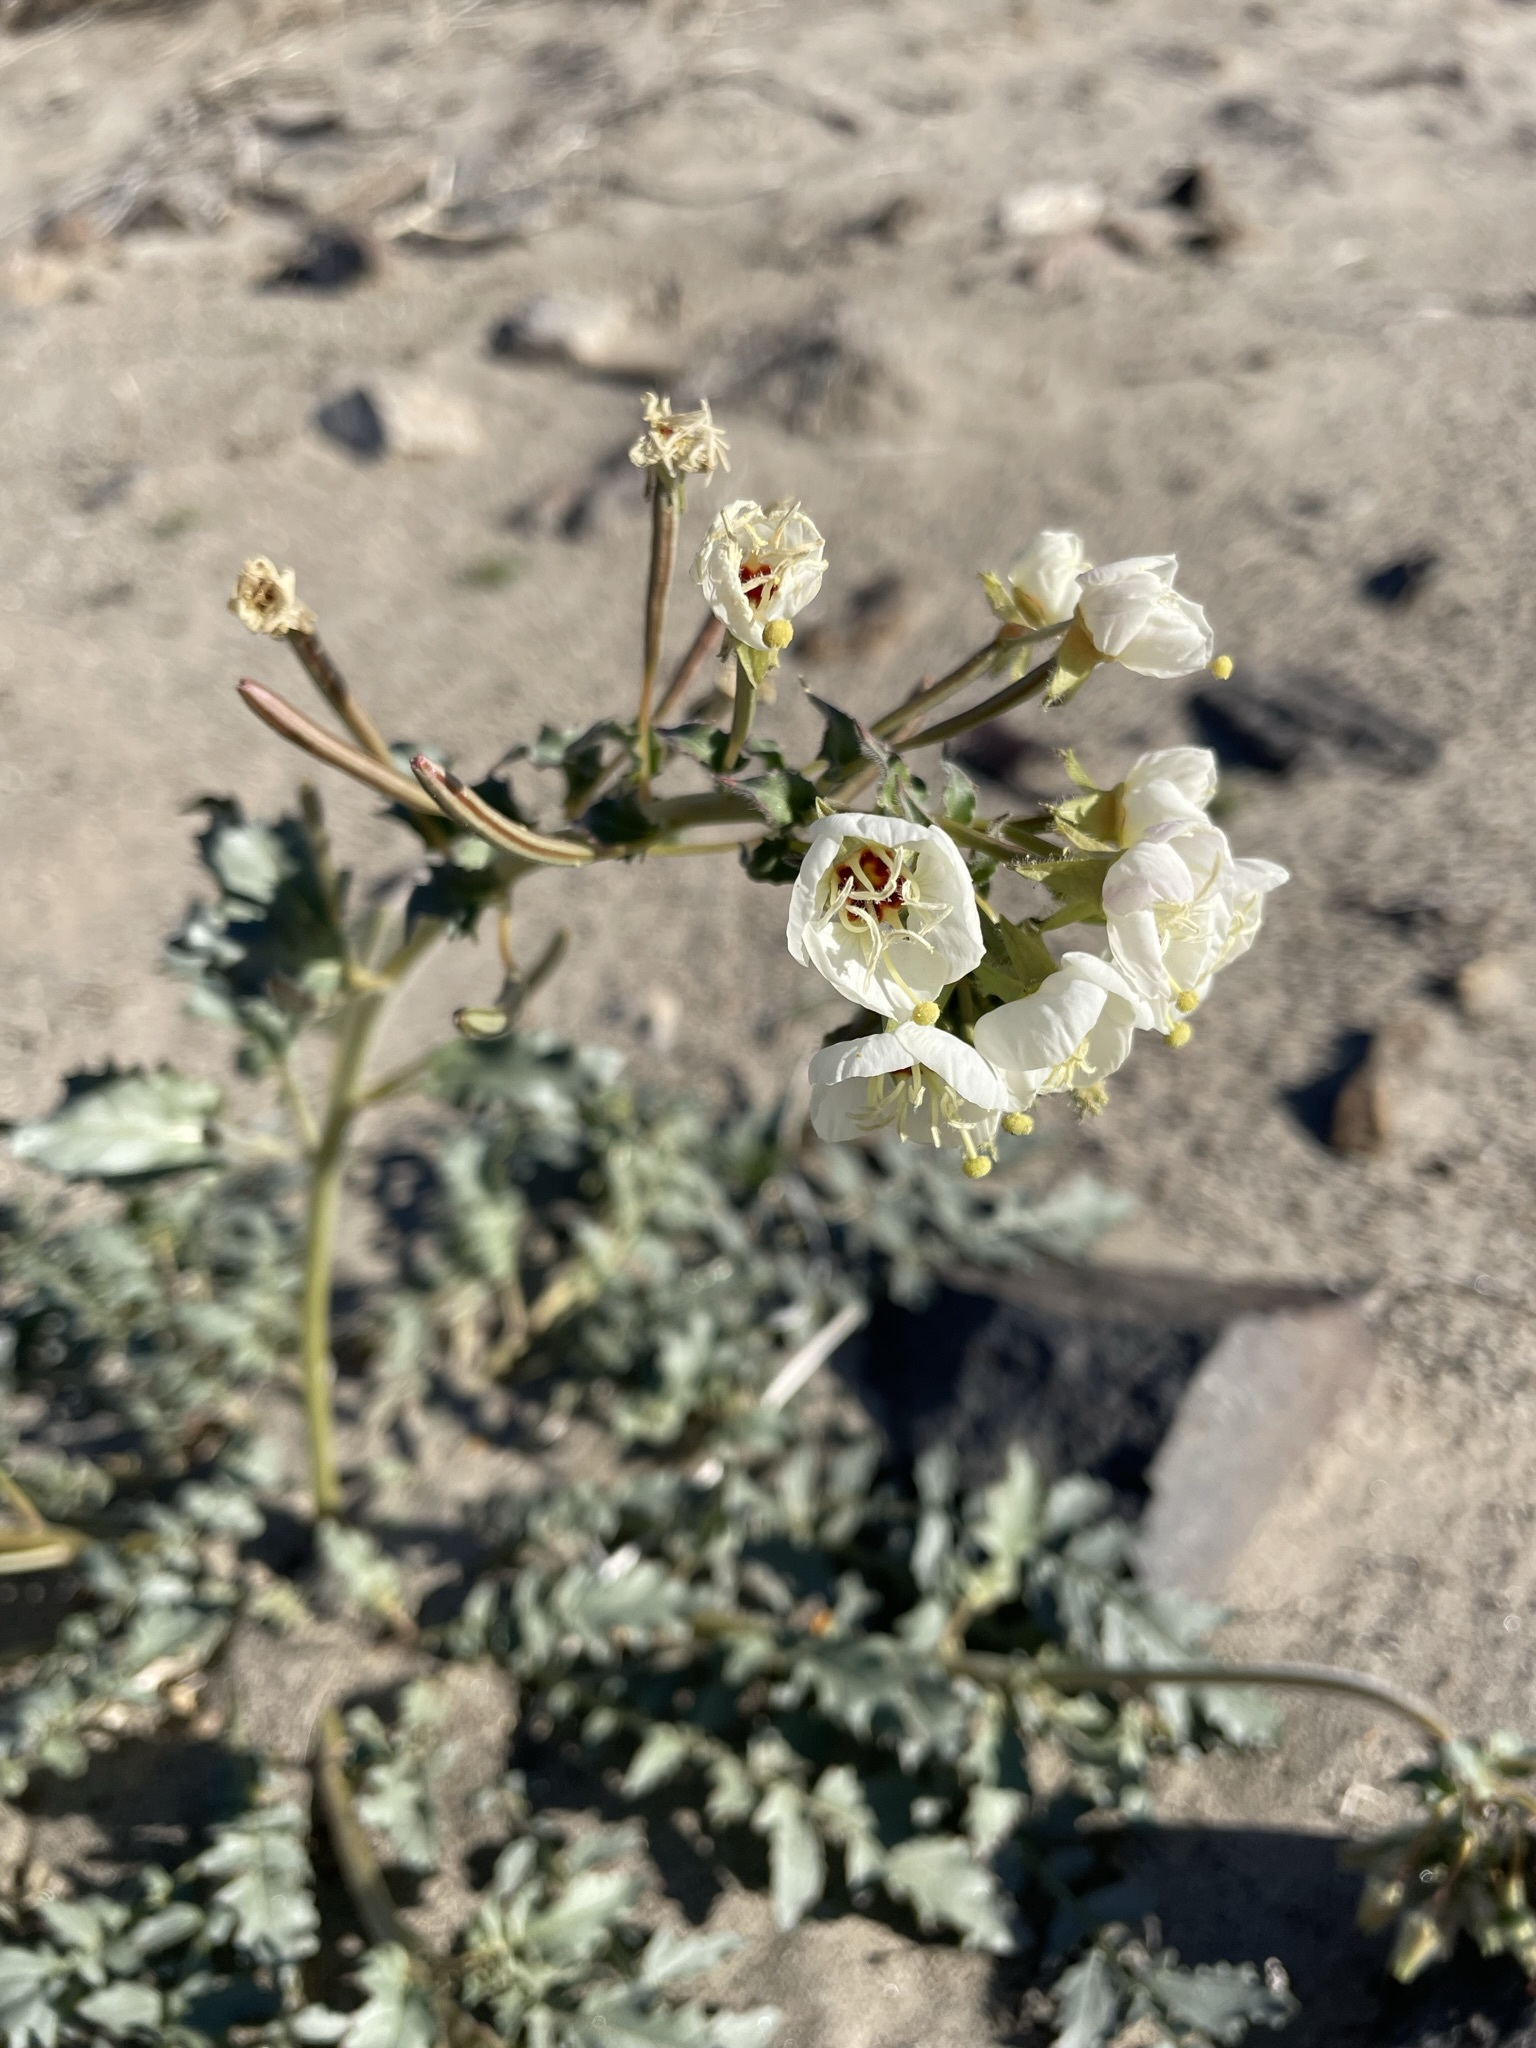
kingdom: Plantae
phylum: Tracheophyta
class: Magnoliopsida
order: Myrtales
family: Onagraceae
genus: Chylismia
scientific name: Chylismia claviformis
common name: Browneyes
